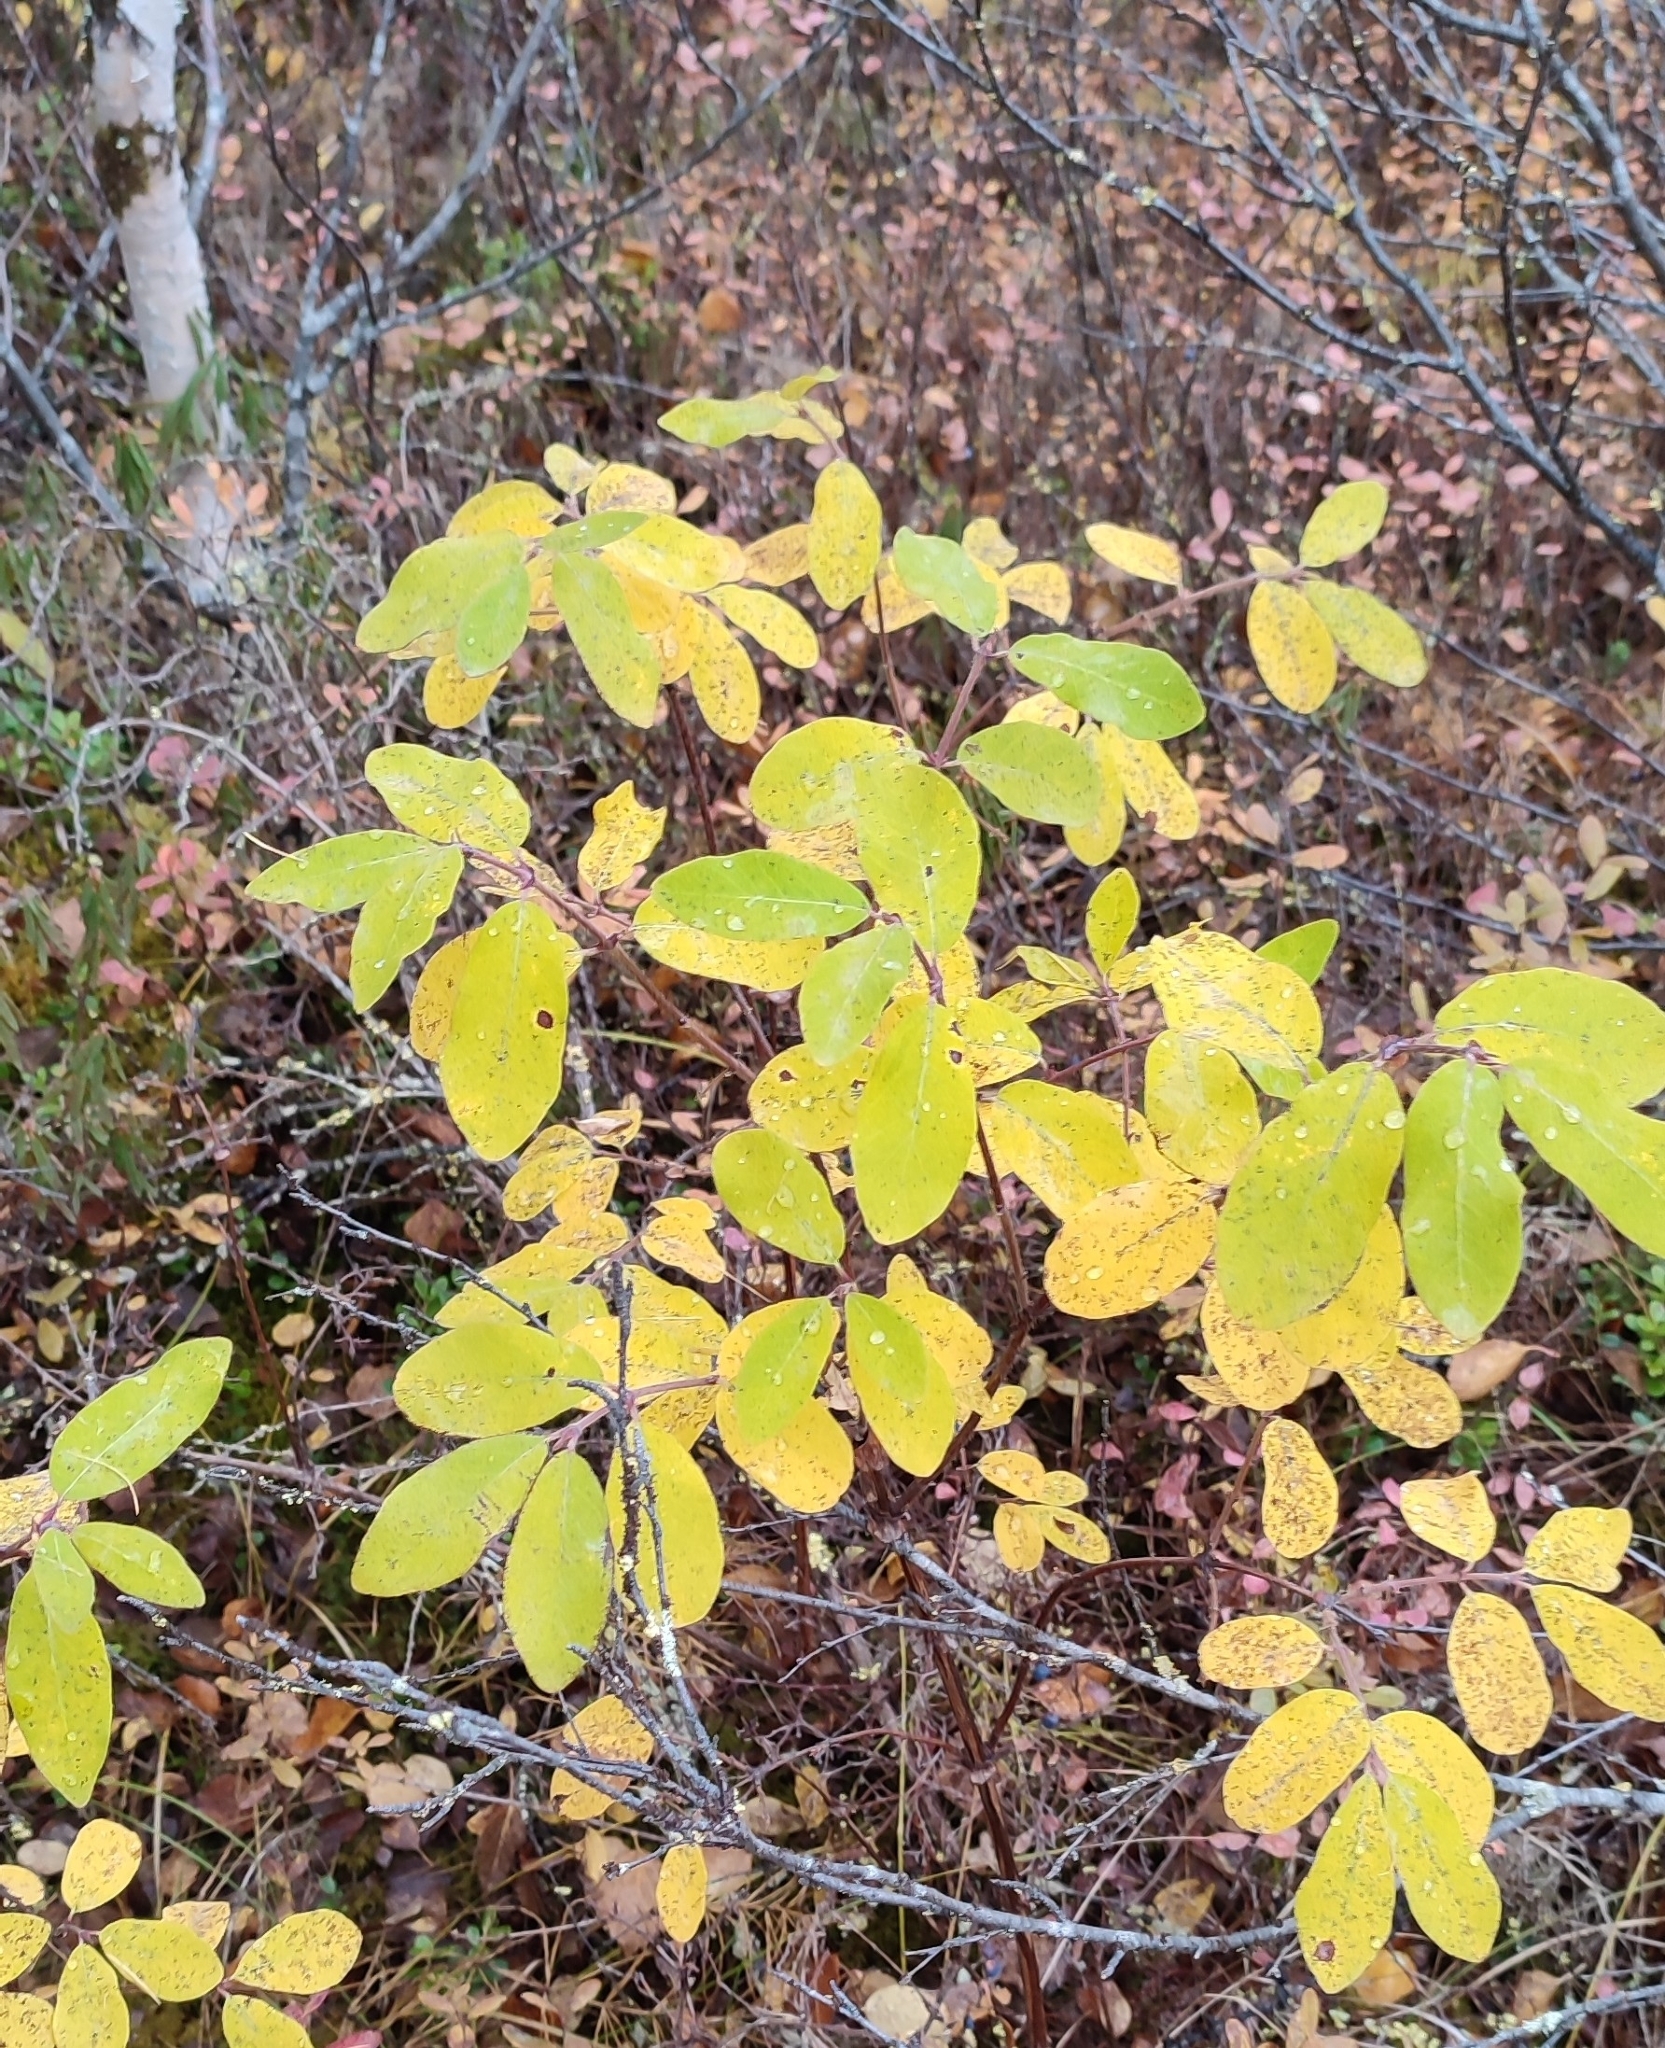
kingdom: Plantae
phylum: Tracheophyta
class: Magnoliopsida
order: Dipsacales
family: Caprifoliaceae
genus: Lonicera
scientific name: Lonicera caerulea
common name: Blue honeysuckle
